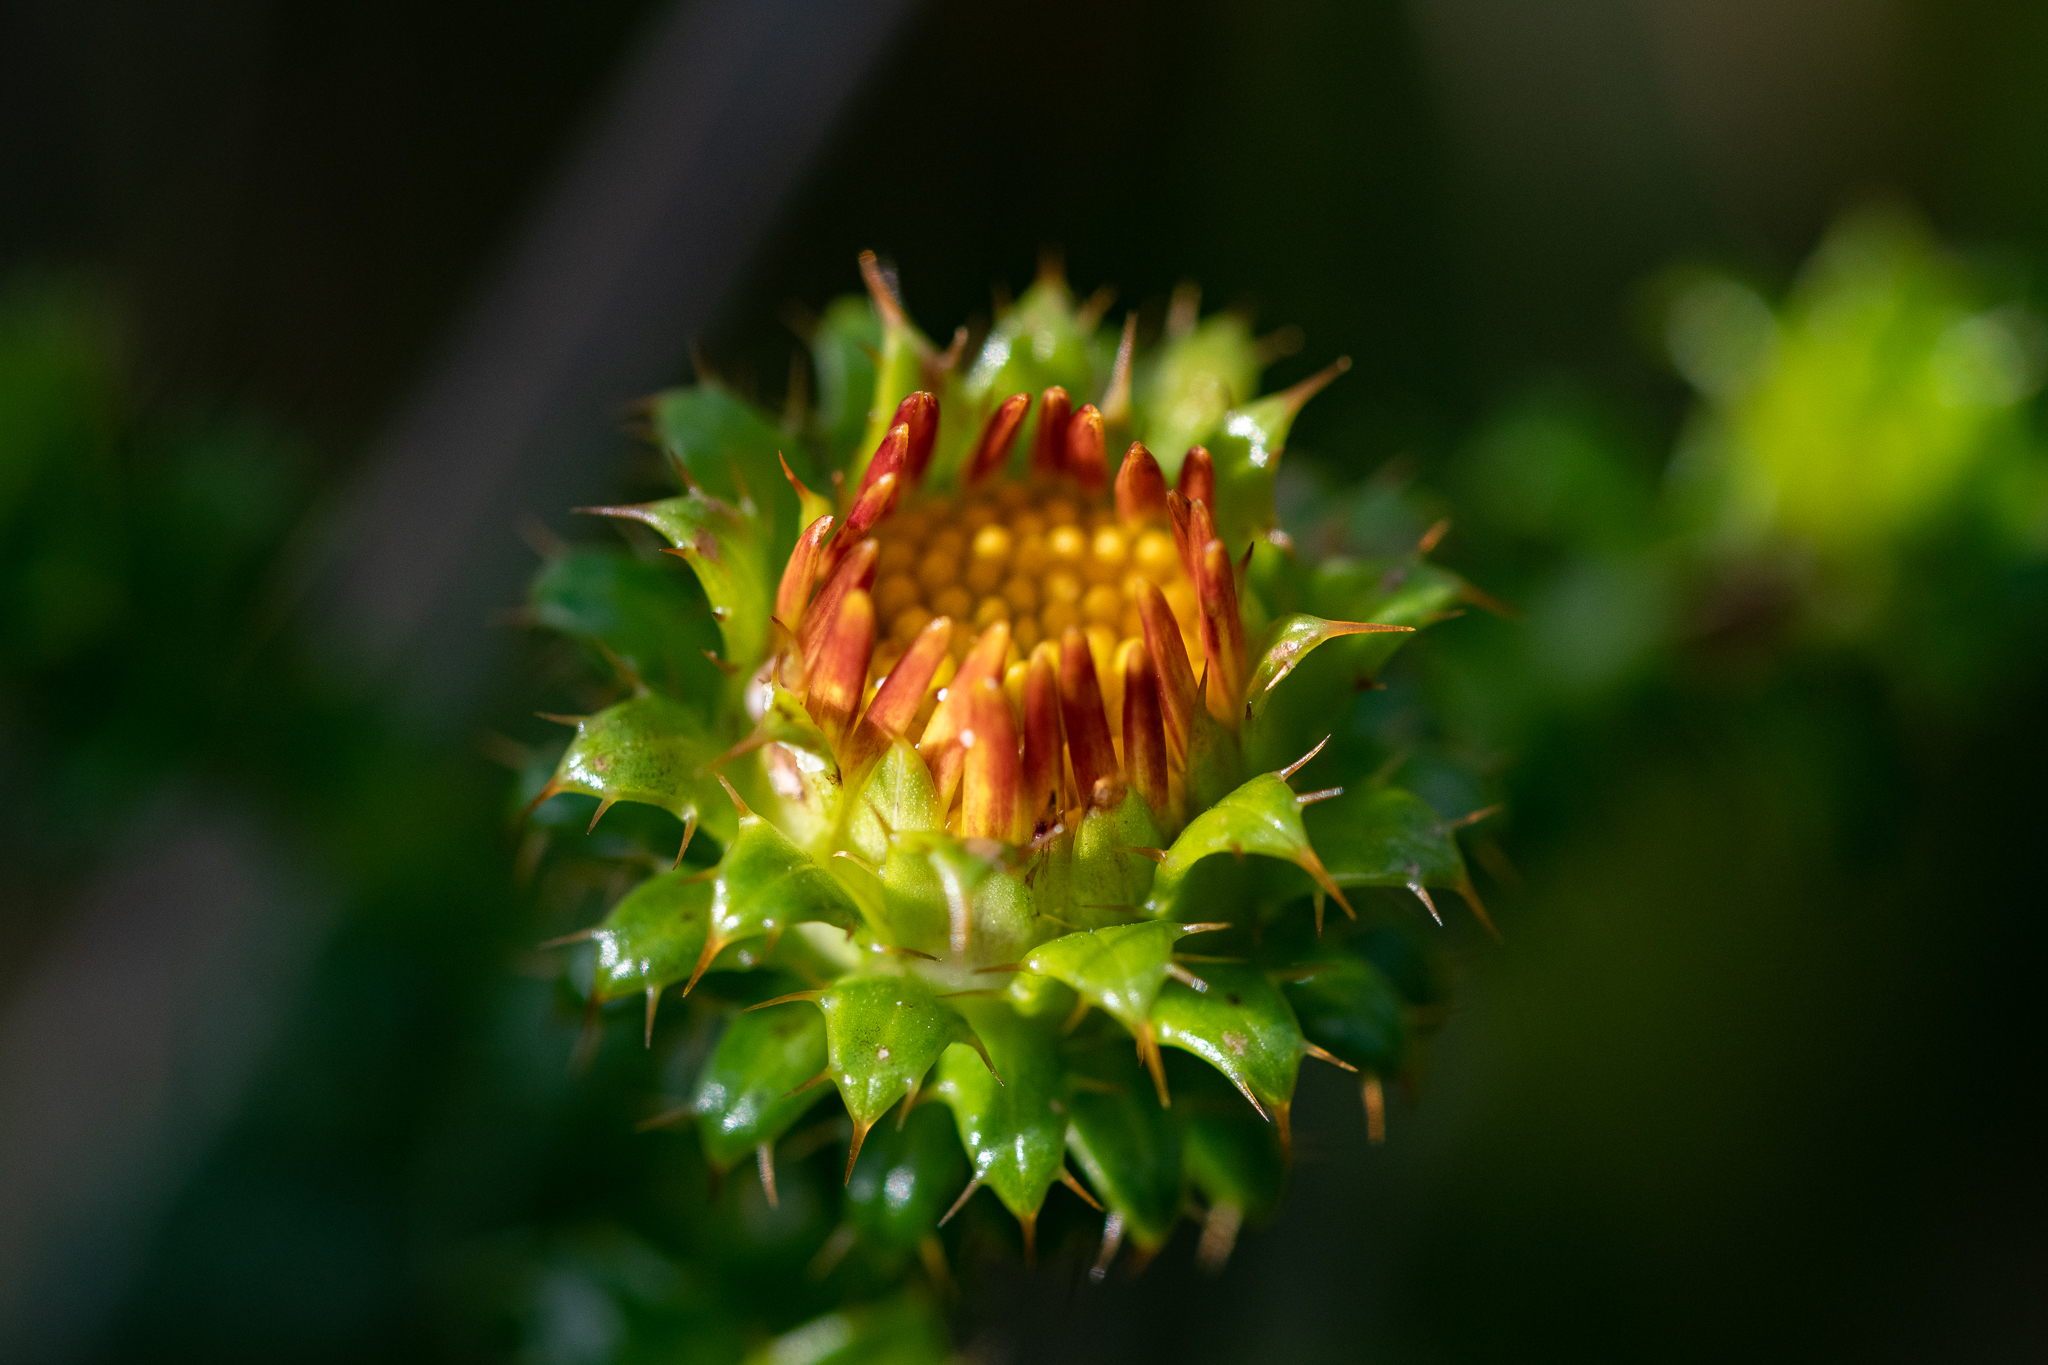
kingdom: Plantae
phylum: Tracheophyta
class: Magnoliopsida
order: Asterales
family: Asteraceae
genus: Cullumia
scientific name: Cullumia setosa
